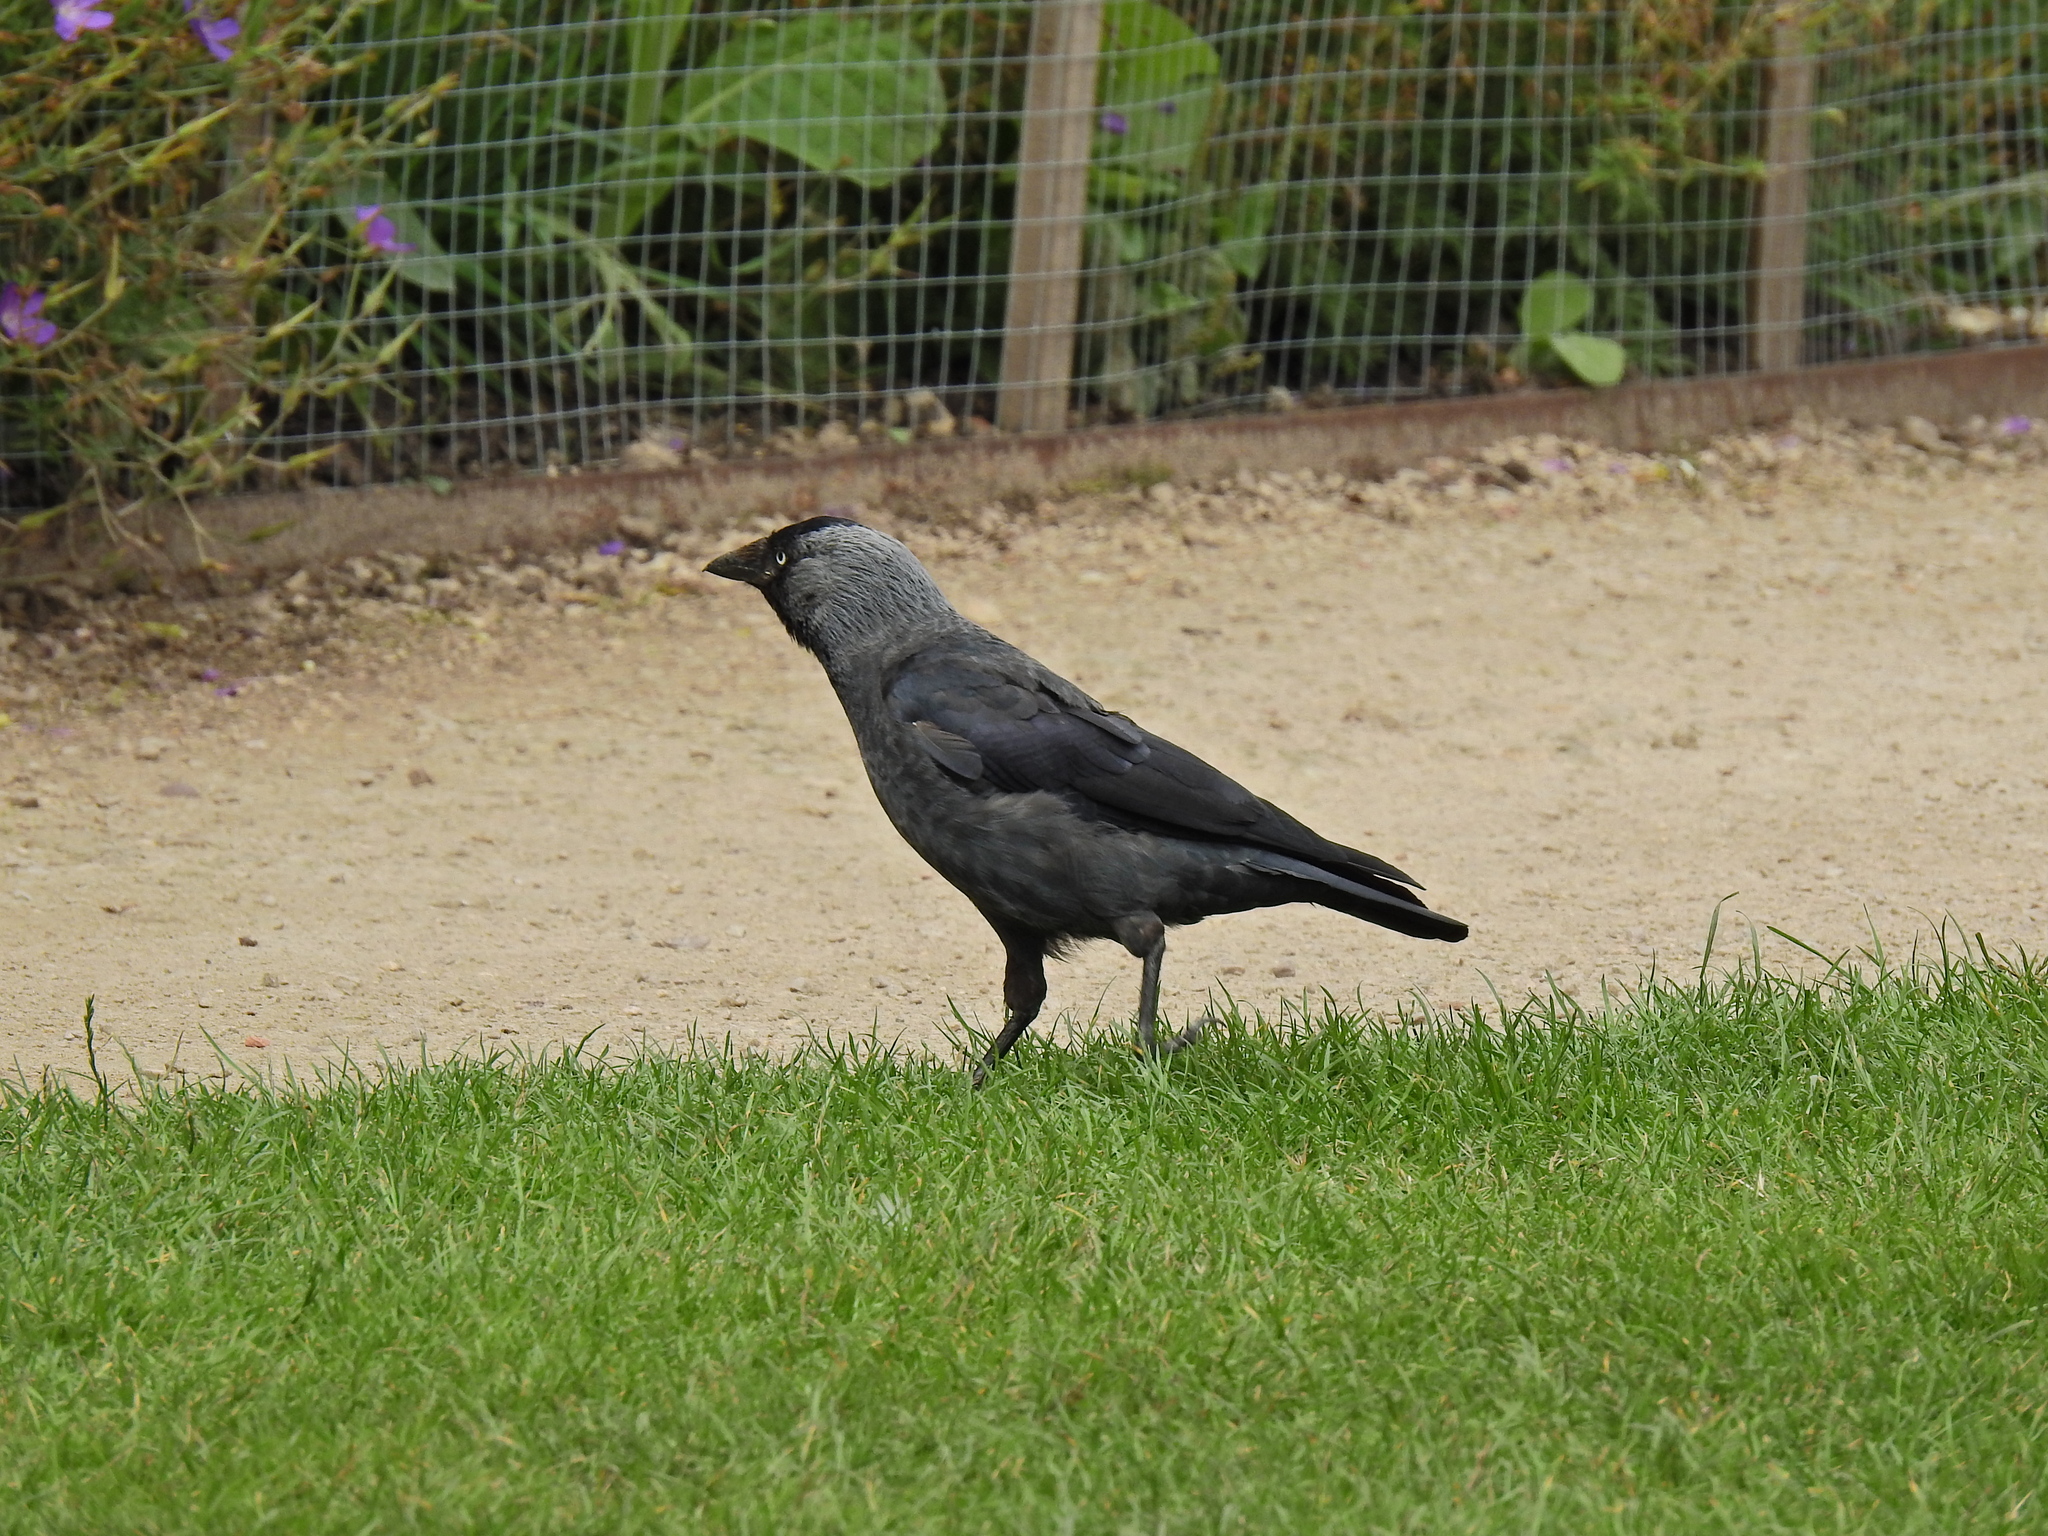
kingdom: Animalia
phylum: Chordata
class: Aves
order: Passeriformes
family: Corvidae
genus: Coloeus
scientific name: Coloeus monedula
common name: Western jackdaw
